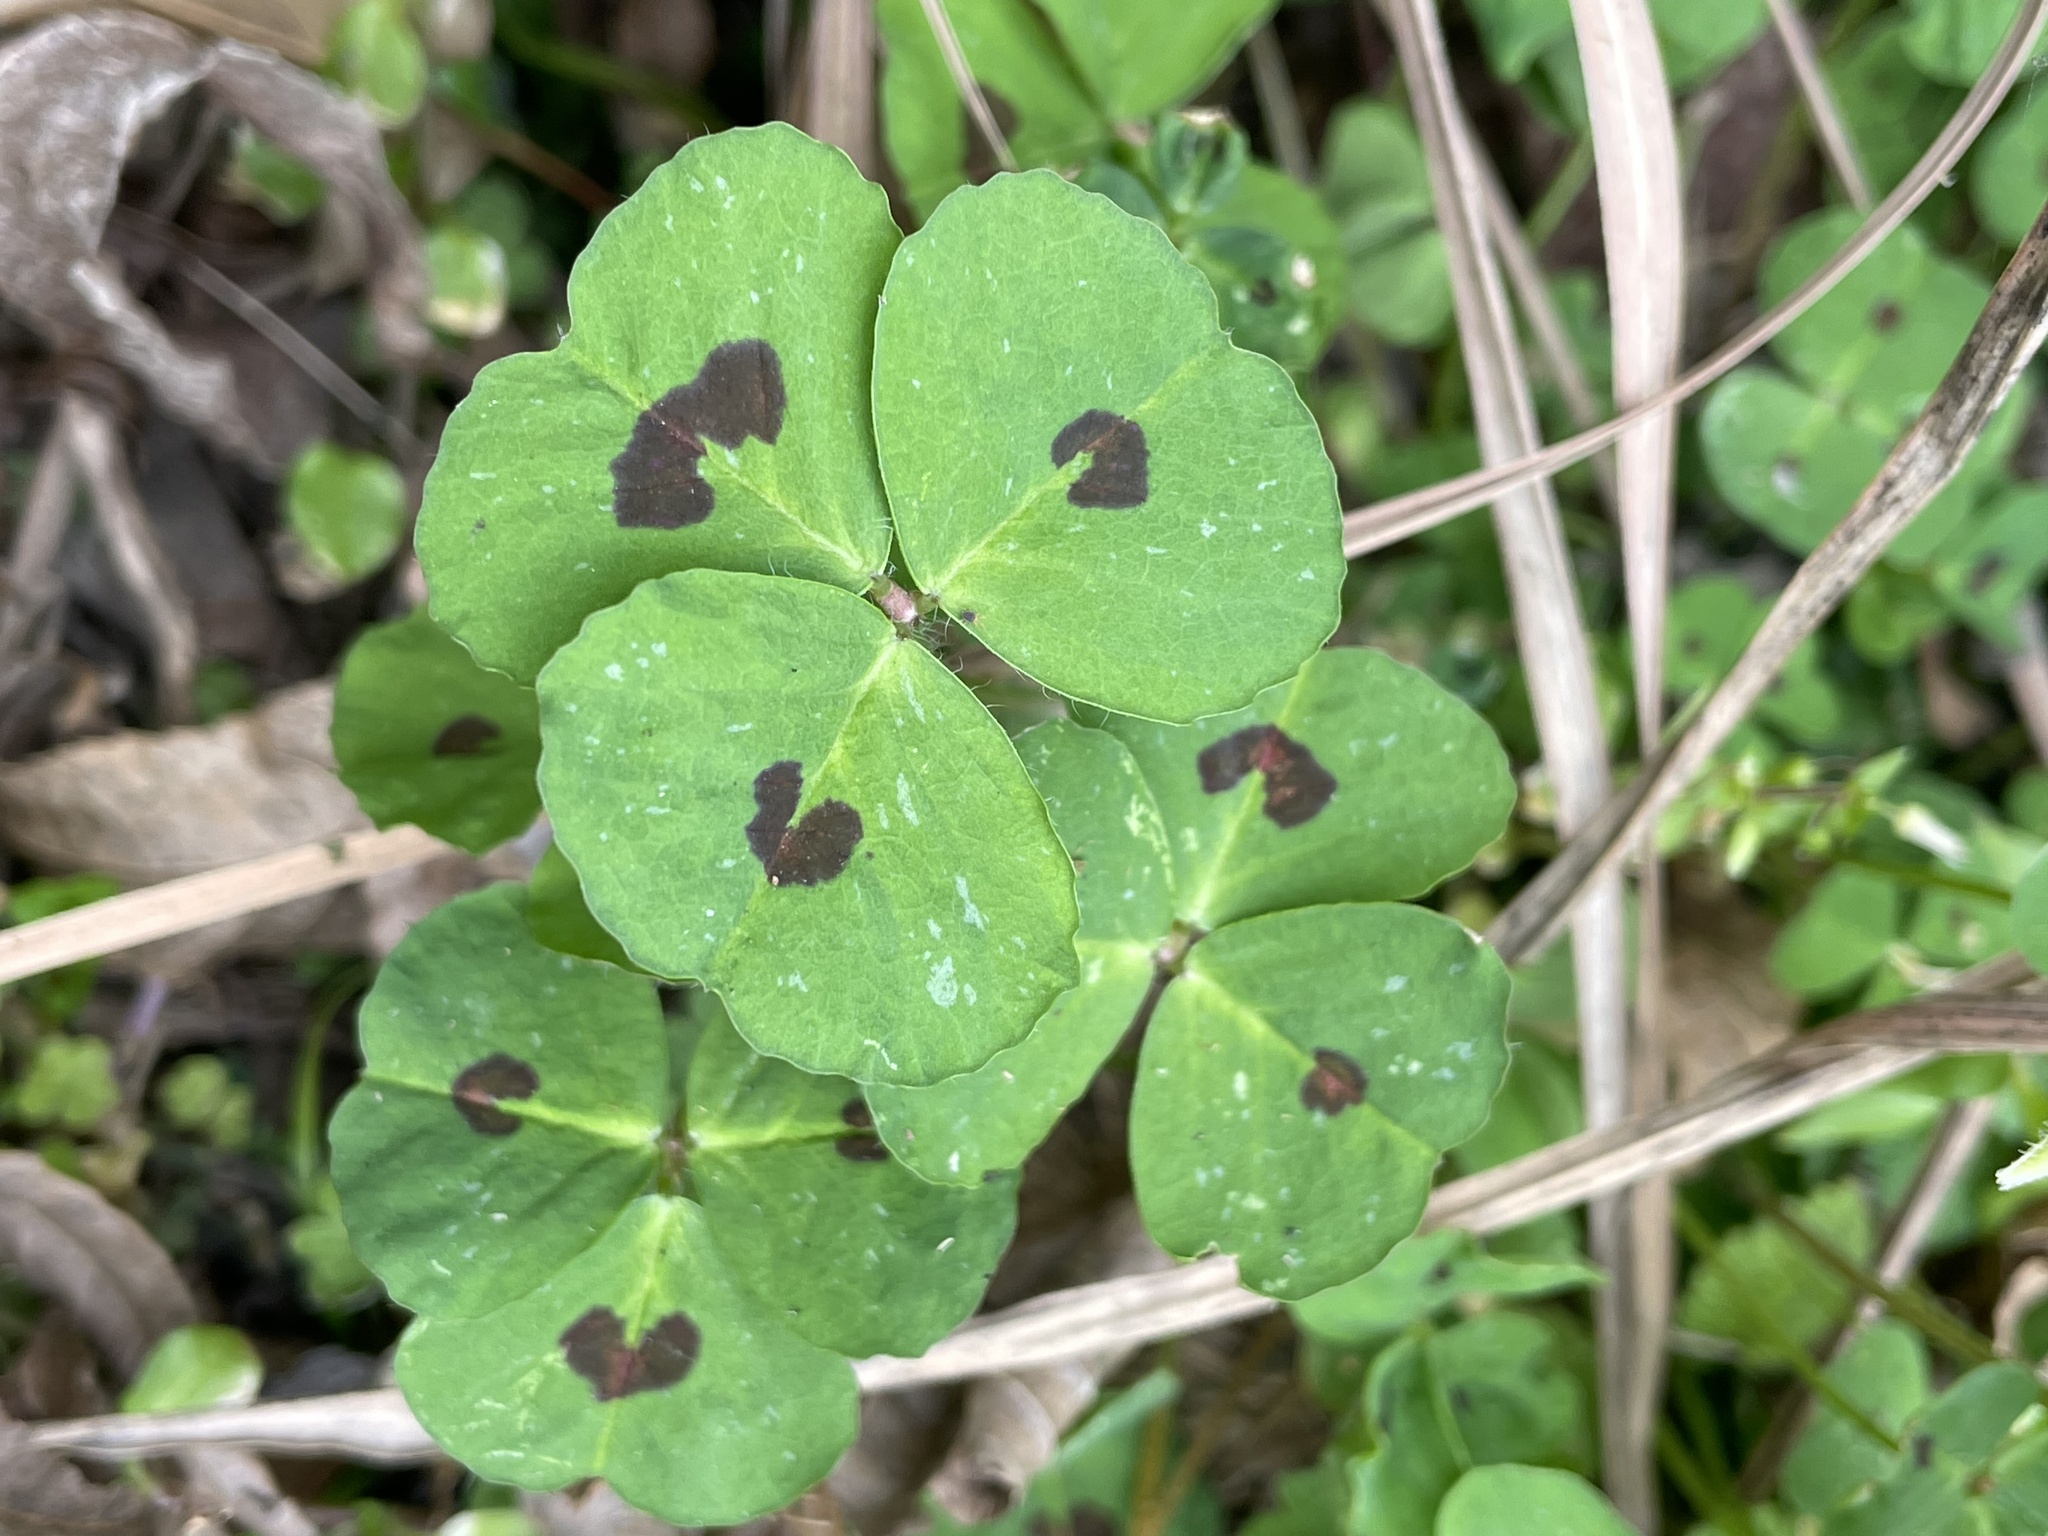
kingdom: Plantae
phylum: Tracheophyta
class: Magnoliopsida
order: Fabales
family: Fabaceae
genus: Medicago
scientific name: Medicago arabica
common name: Spotted medick
